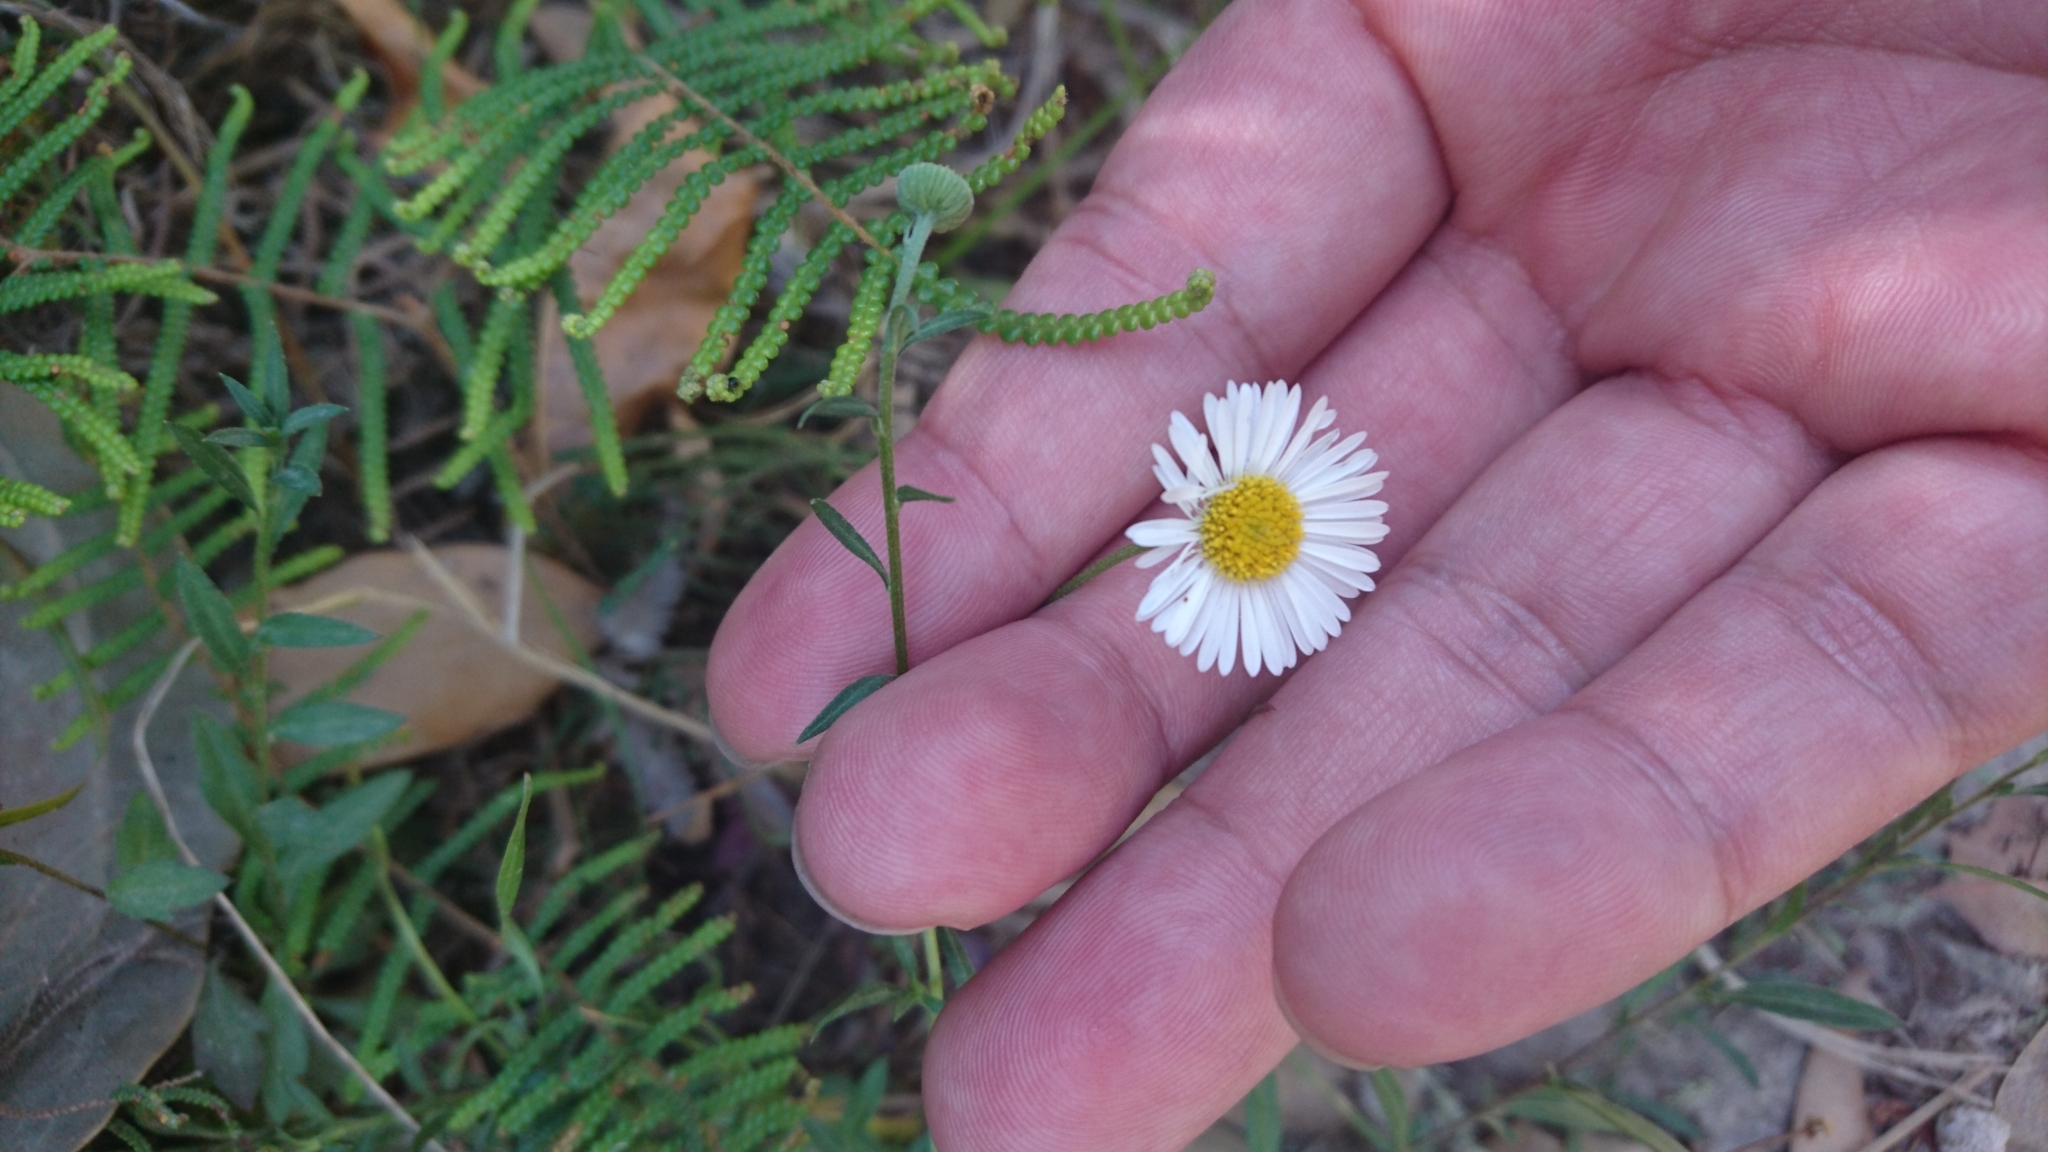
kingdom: Plantae
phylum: Tracheophyta
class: Magnoliopsida
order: Asterales
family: Asteraceae
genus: Erigeron
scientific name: Erigeron karvinskianus
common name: Mexican fleabane
